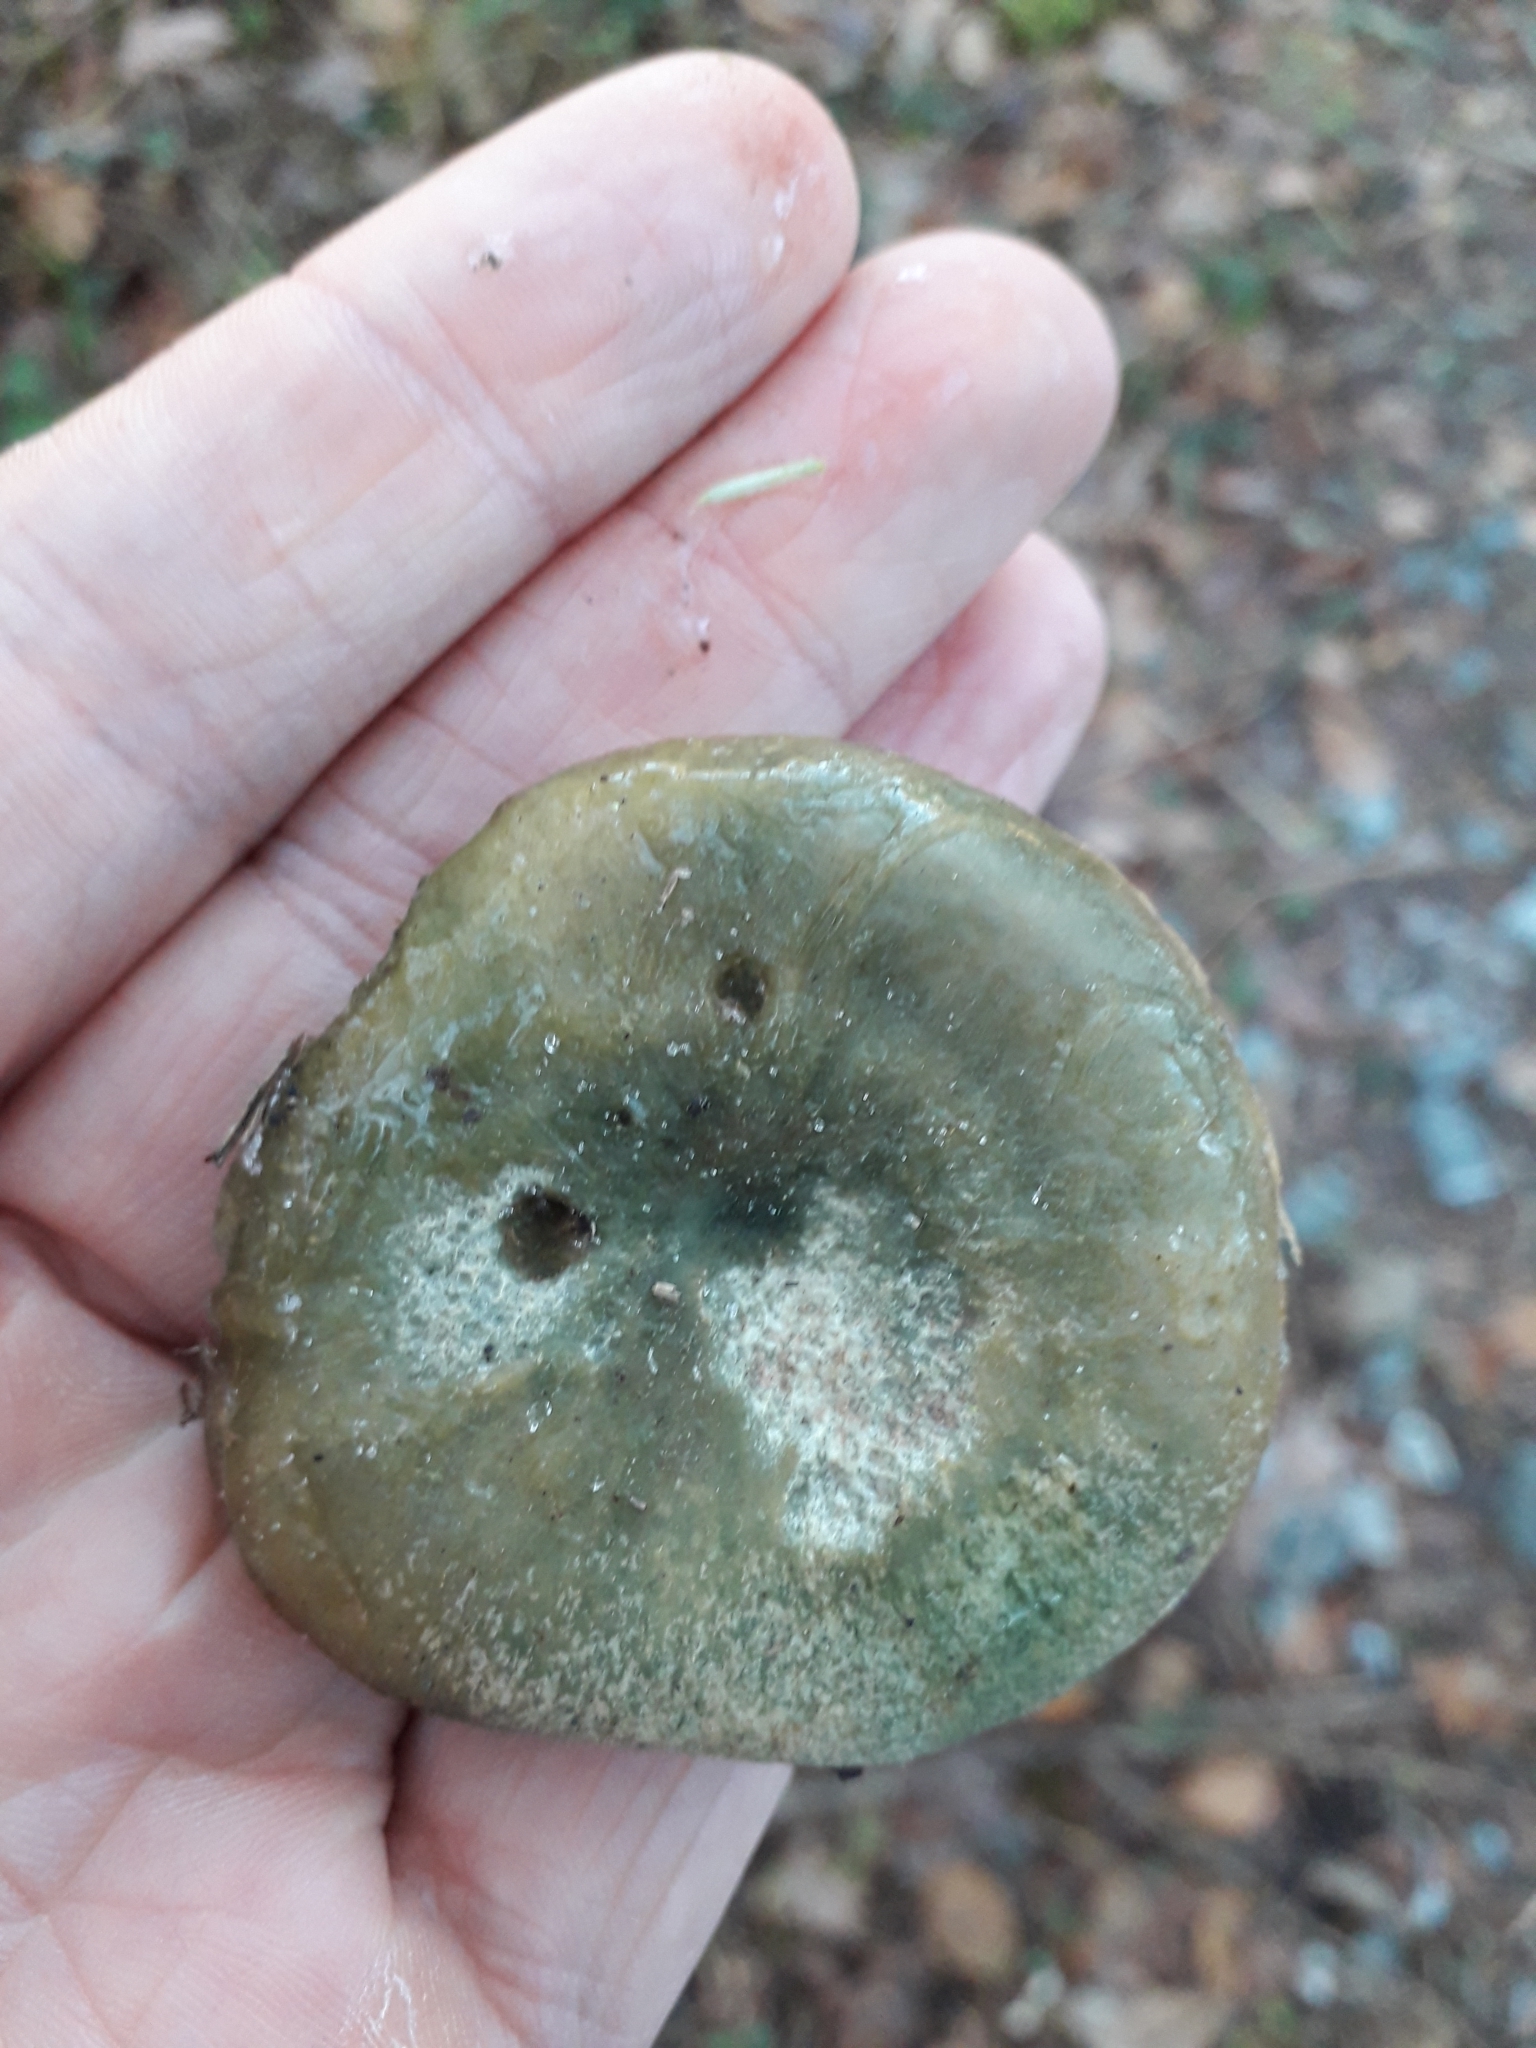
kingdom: Fungi
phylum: Basidiomycota
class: Agaricomycetes
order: Russulales
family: Russulaceae
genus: Lactarius
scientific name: Lactarius deterrimus
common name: False saffron milkcap
